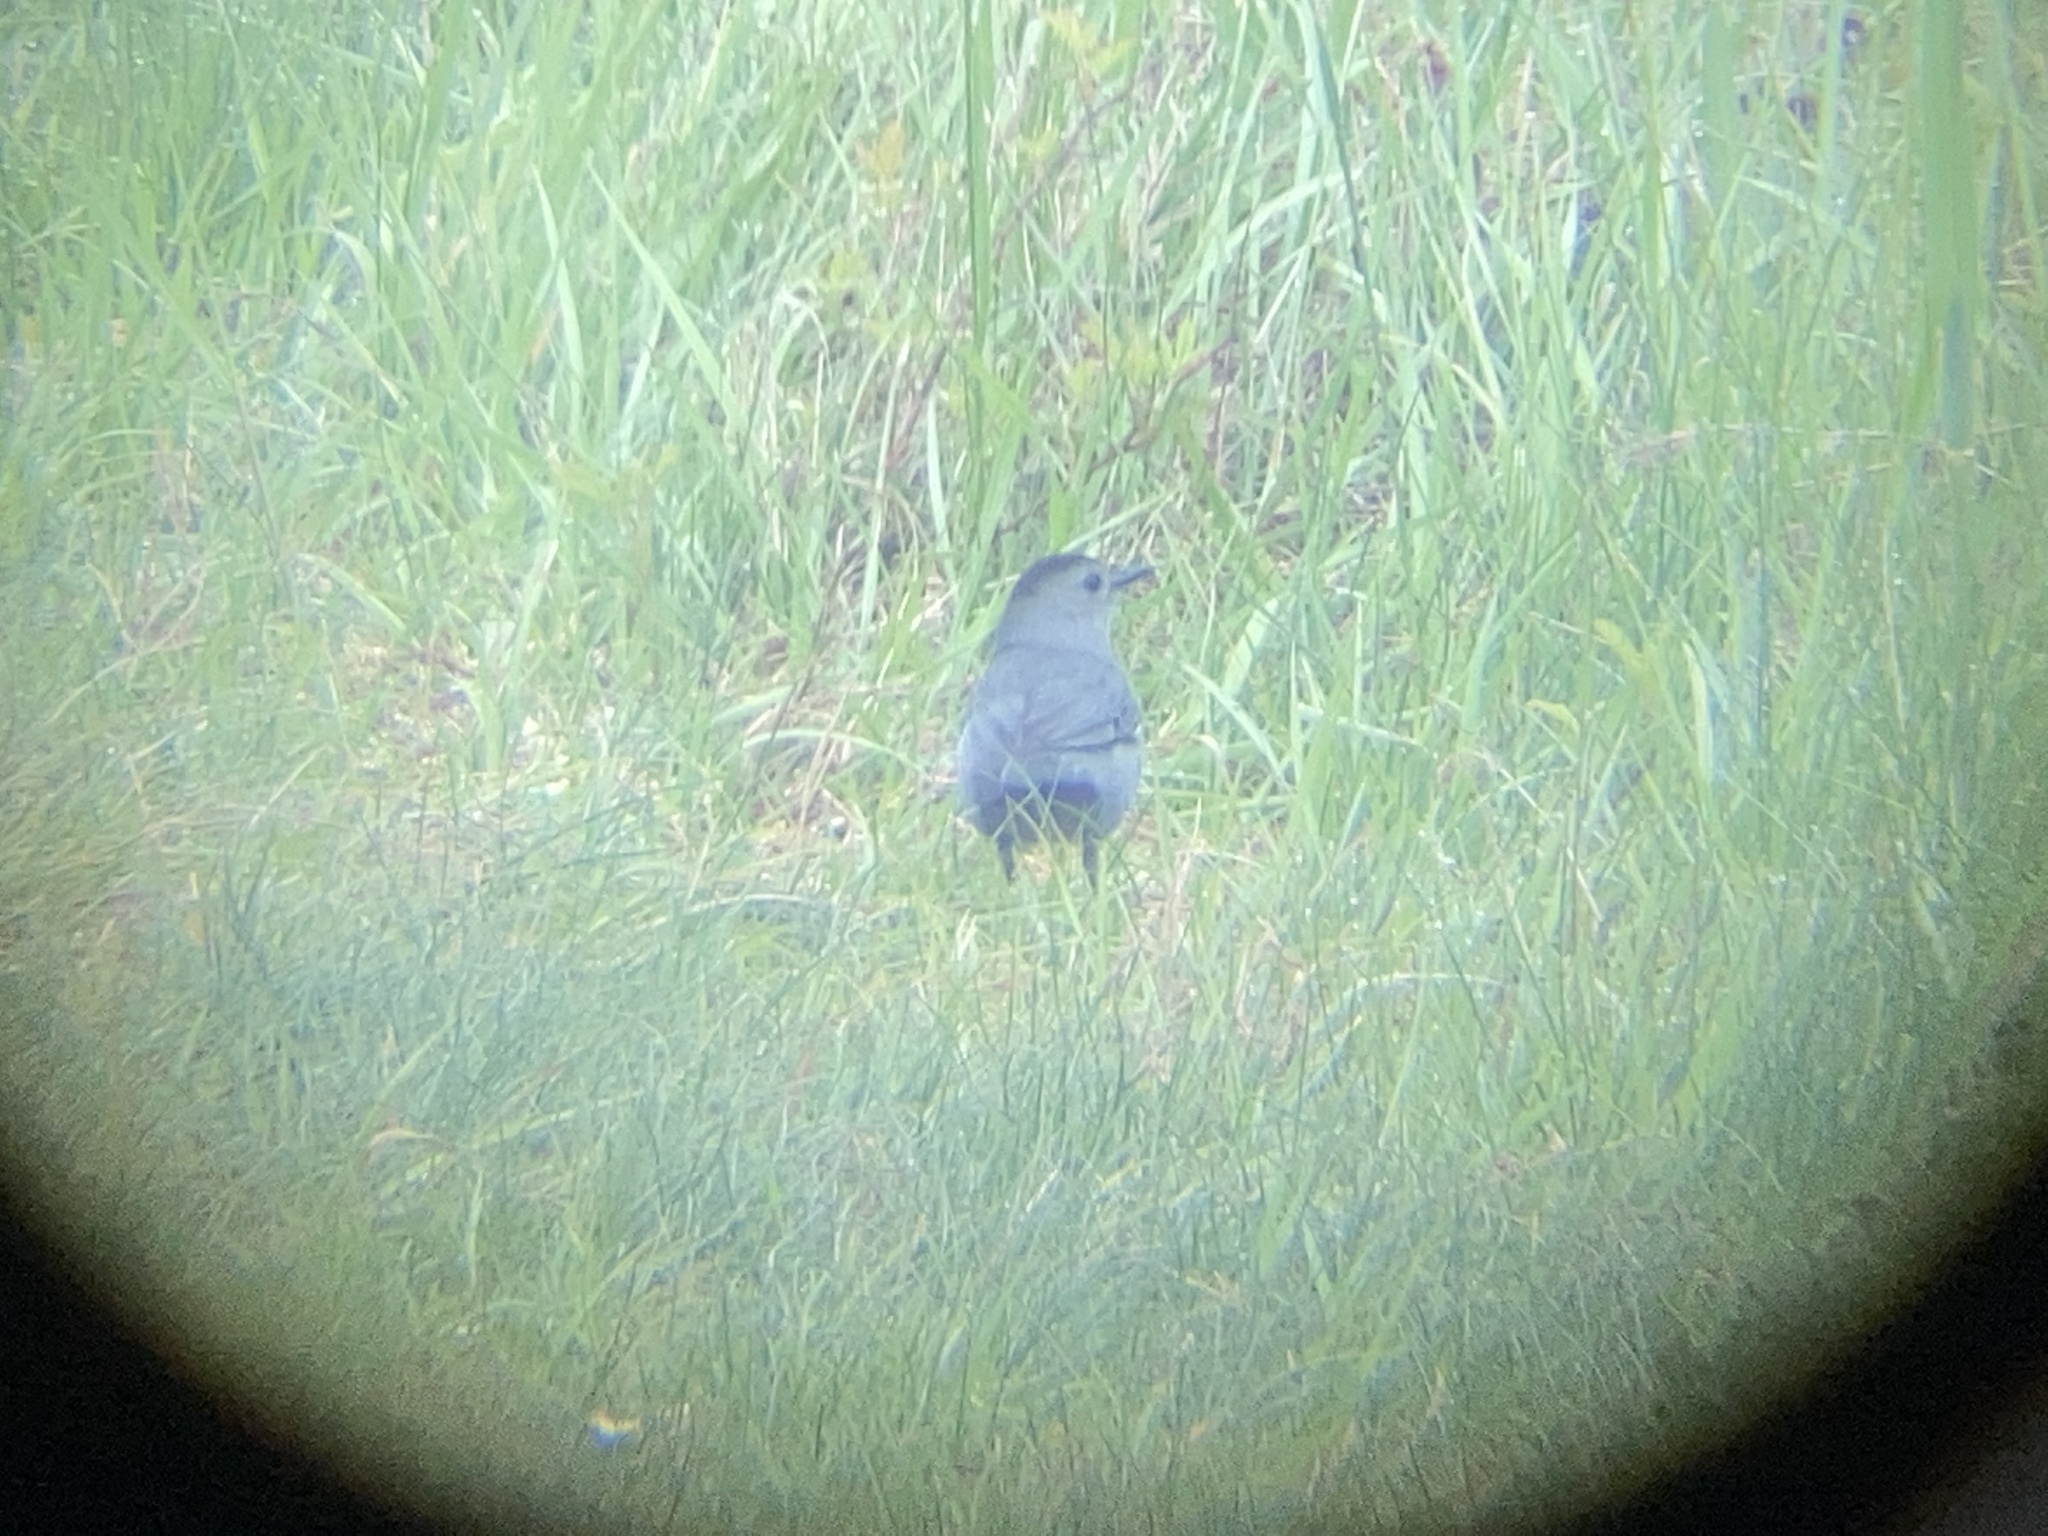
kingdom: Animalia
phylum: Chordata
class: Aves
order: Passeriformes
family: Mimidae
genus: Dumetella
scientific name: Dumetella carolinensis
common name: Gray catbird
